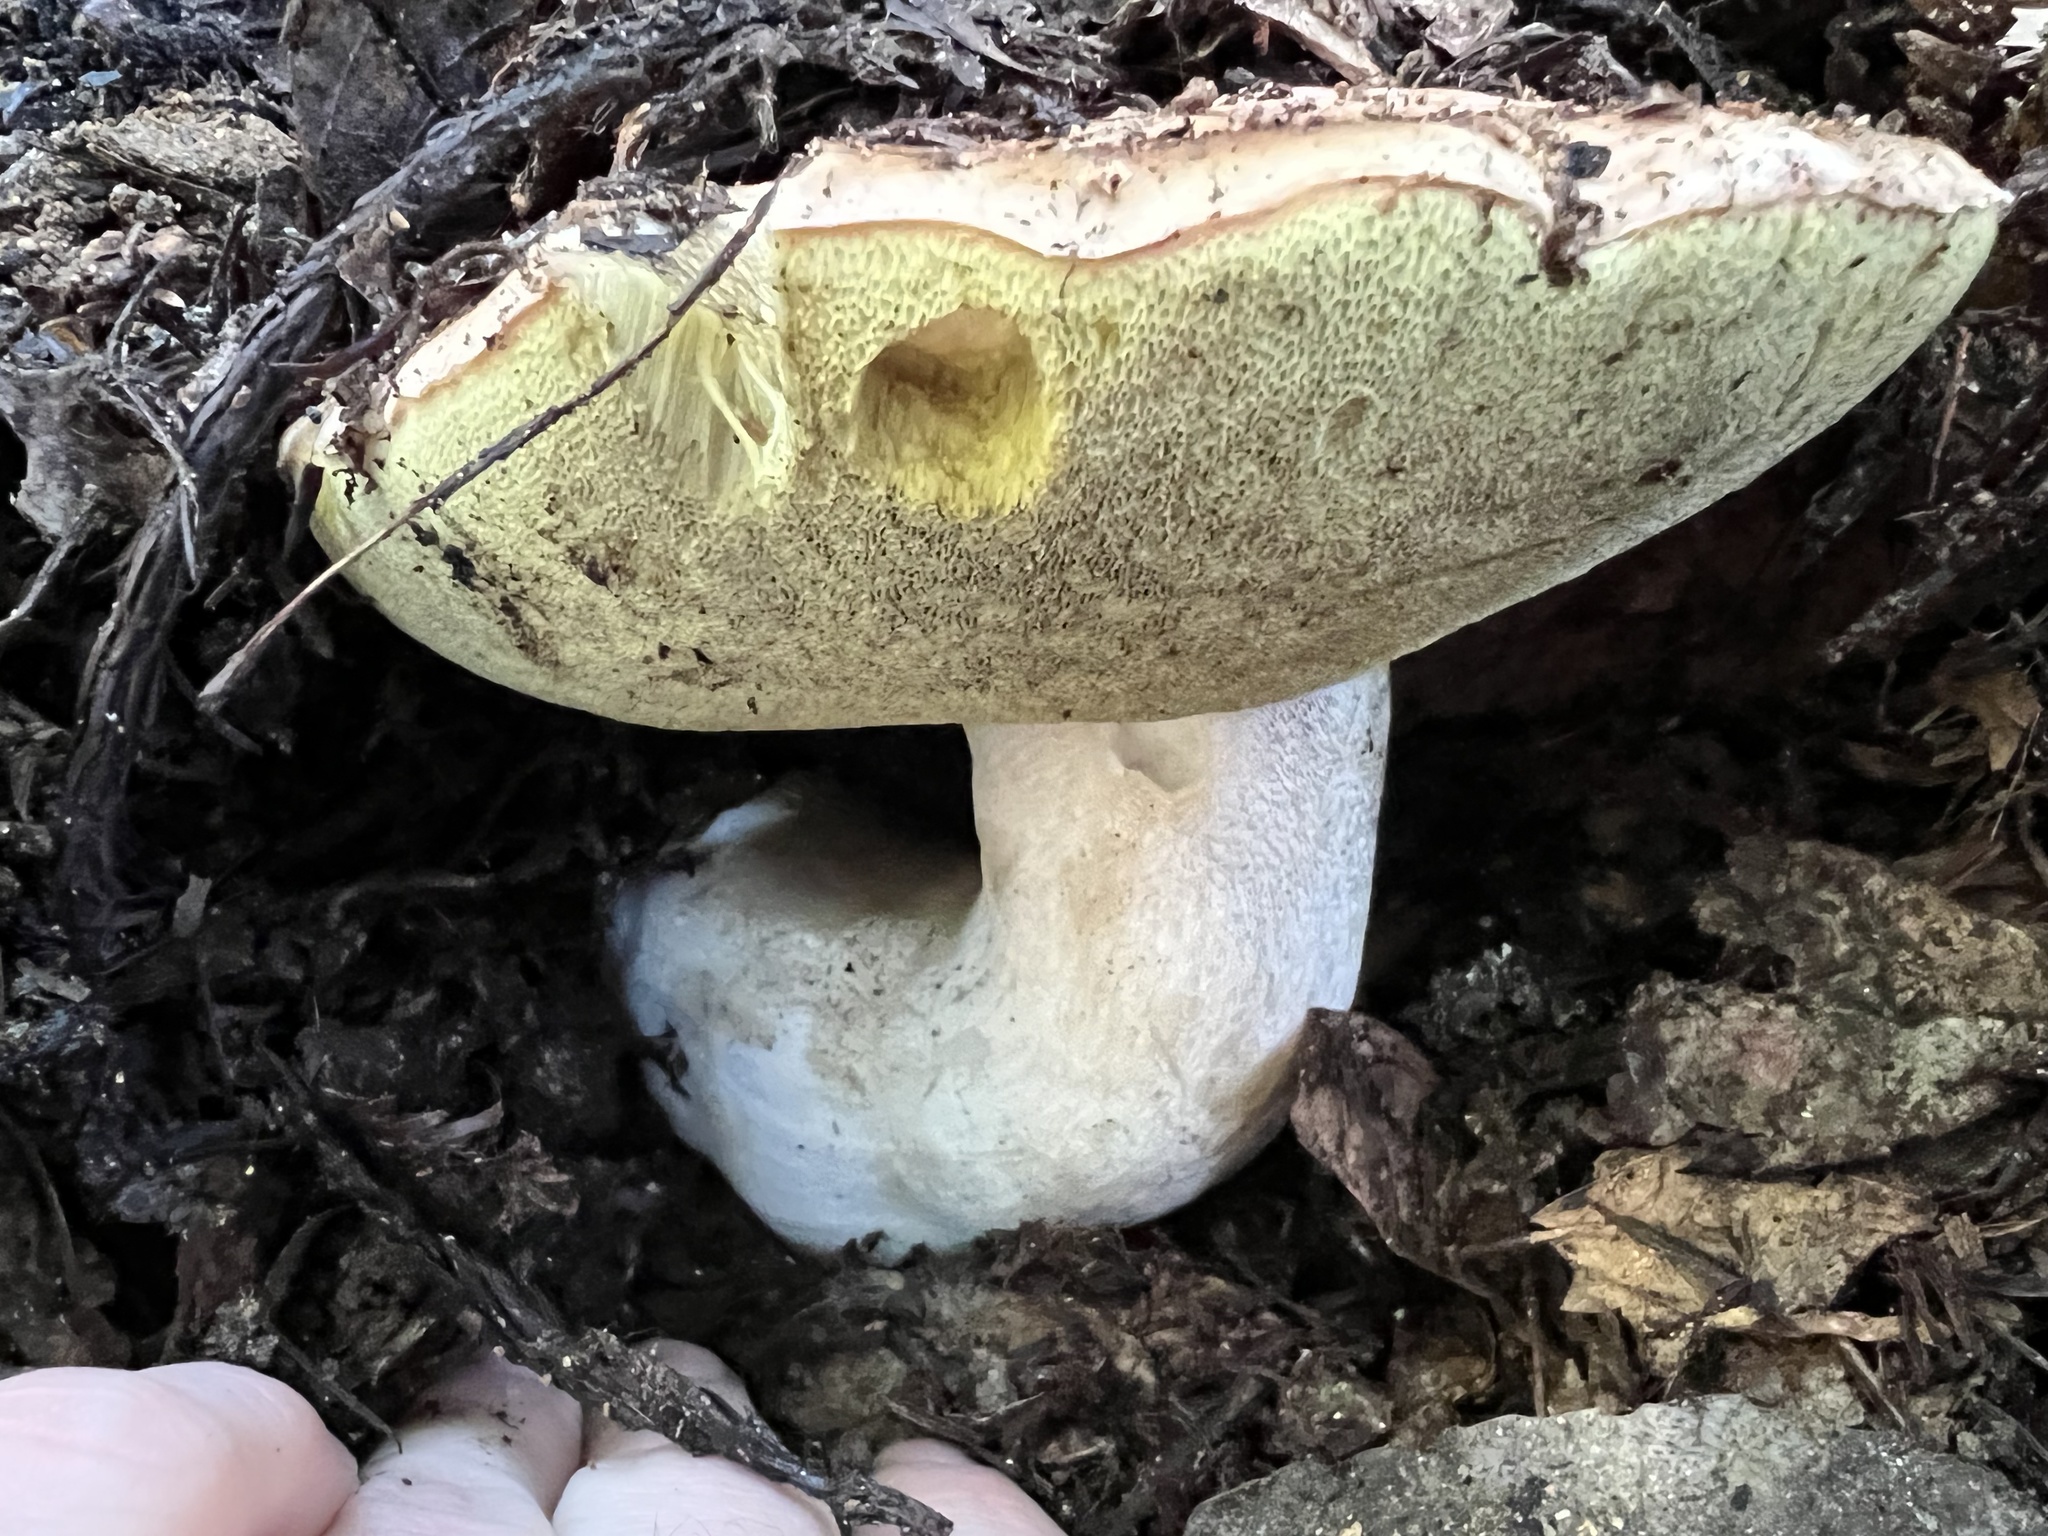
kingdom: Fungi
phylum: Basidiomycota
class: Agaricomycetes
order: Boletales
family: Boletaceae
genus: Boletus
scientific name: Boletus regineus
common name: Queen bolete
